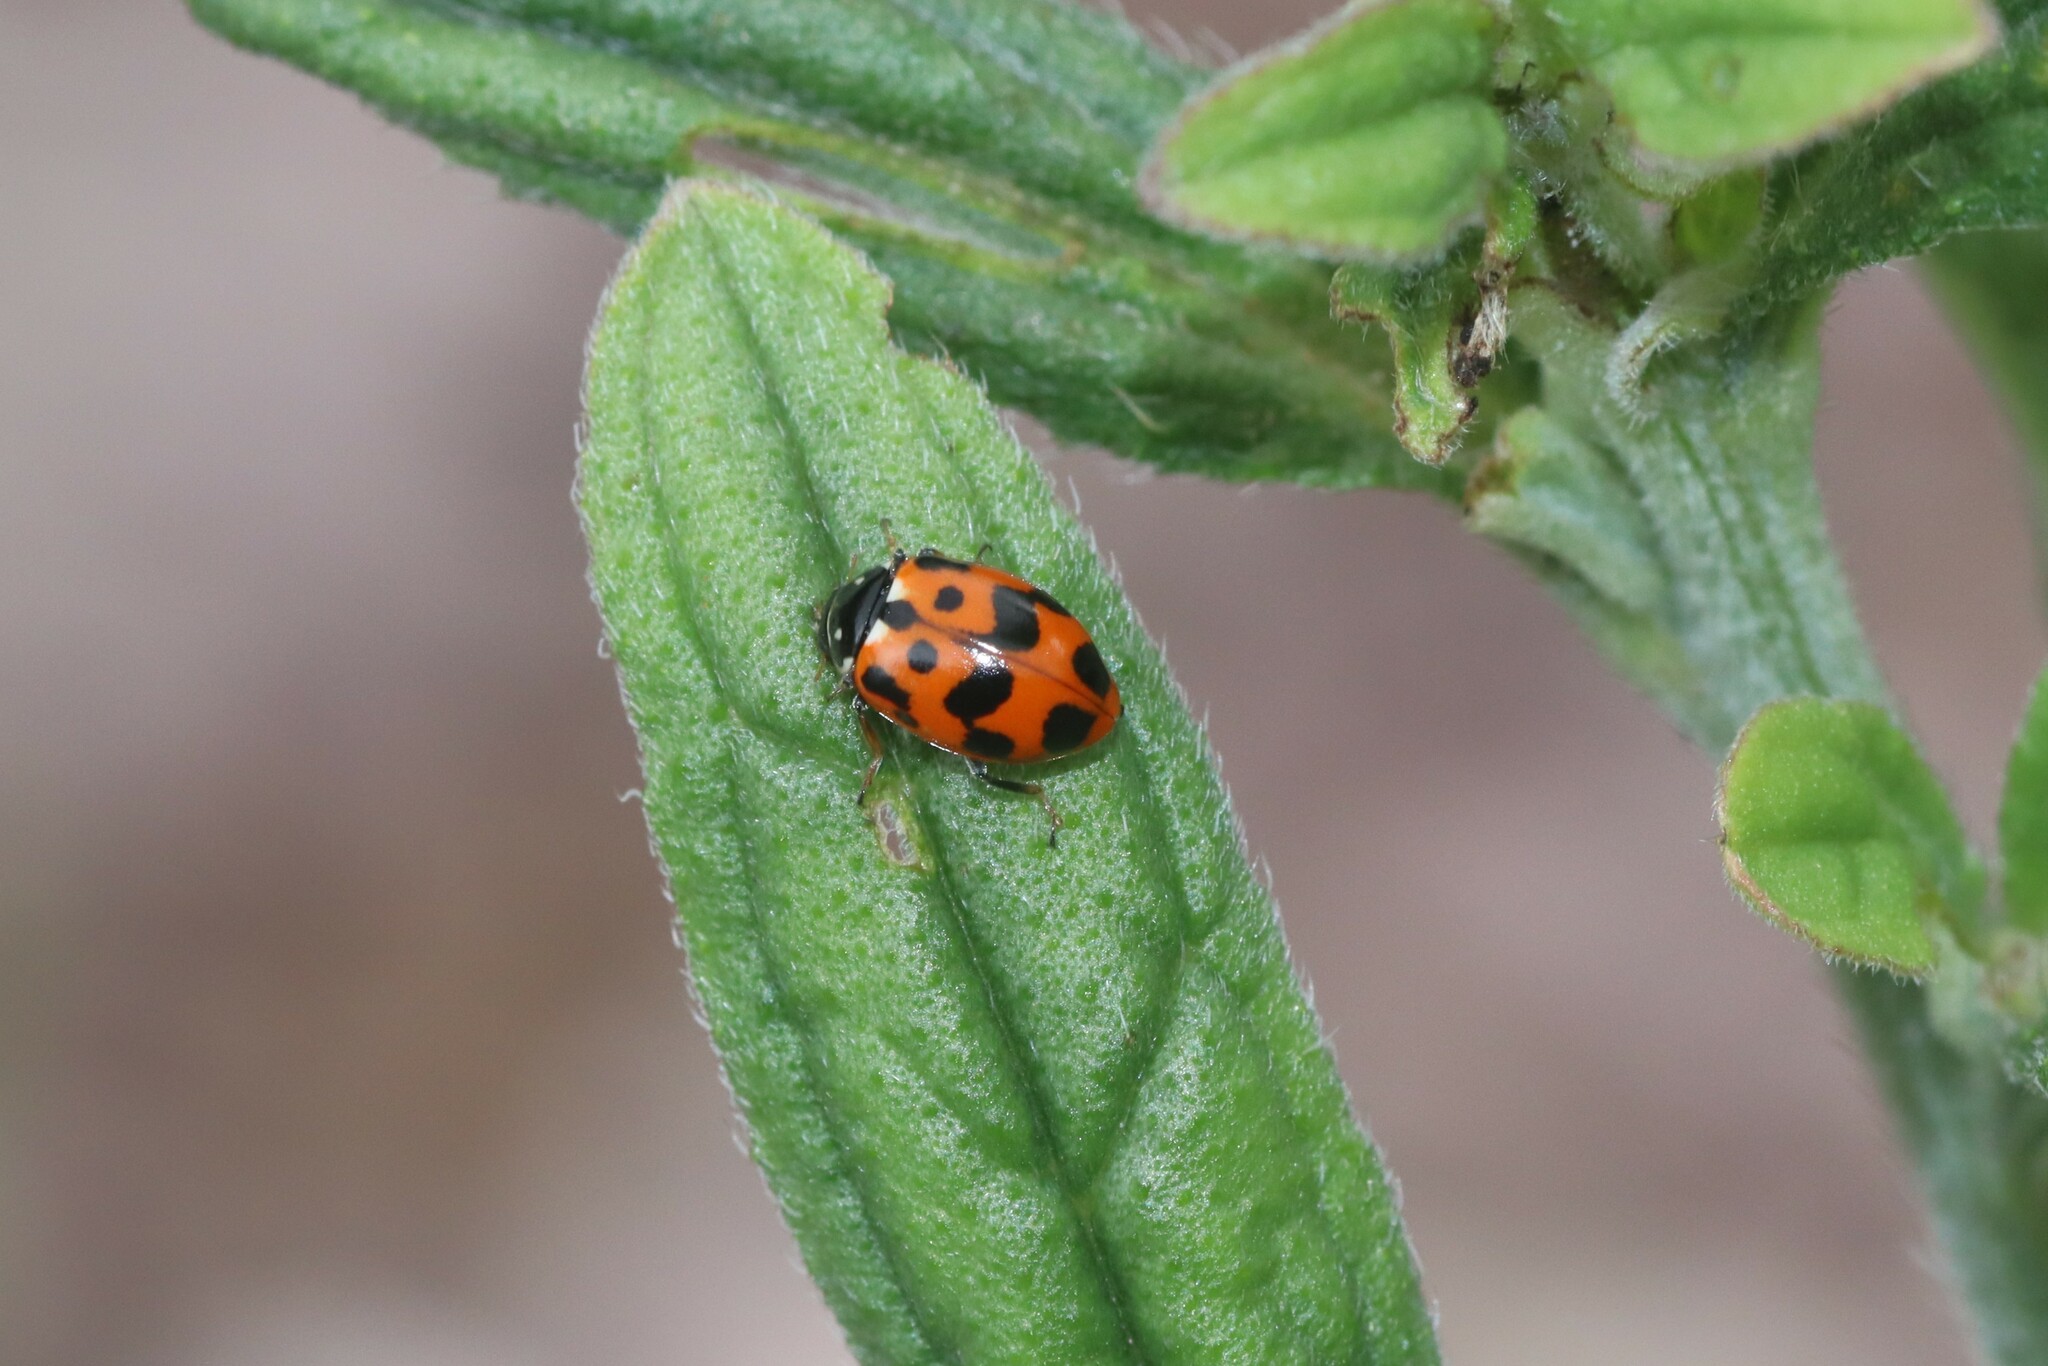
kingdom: Animalia
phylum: Arthropoda
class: Insecta
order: Coleoptera
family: Coccinellidae
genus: Hippodamia
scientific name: Hippodamia variegata
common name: Ladybird beetle
